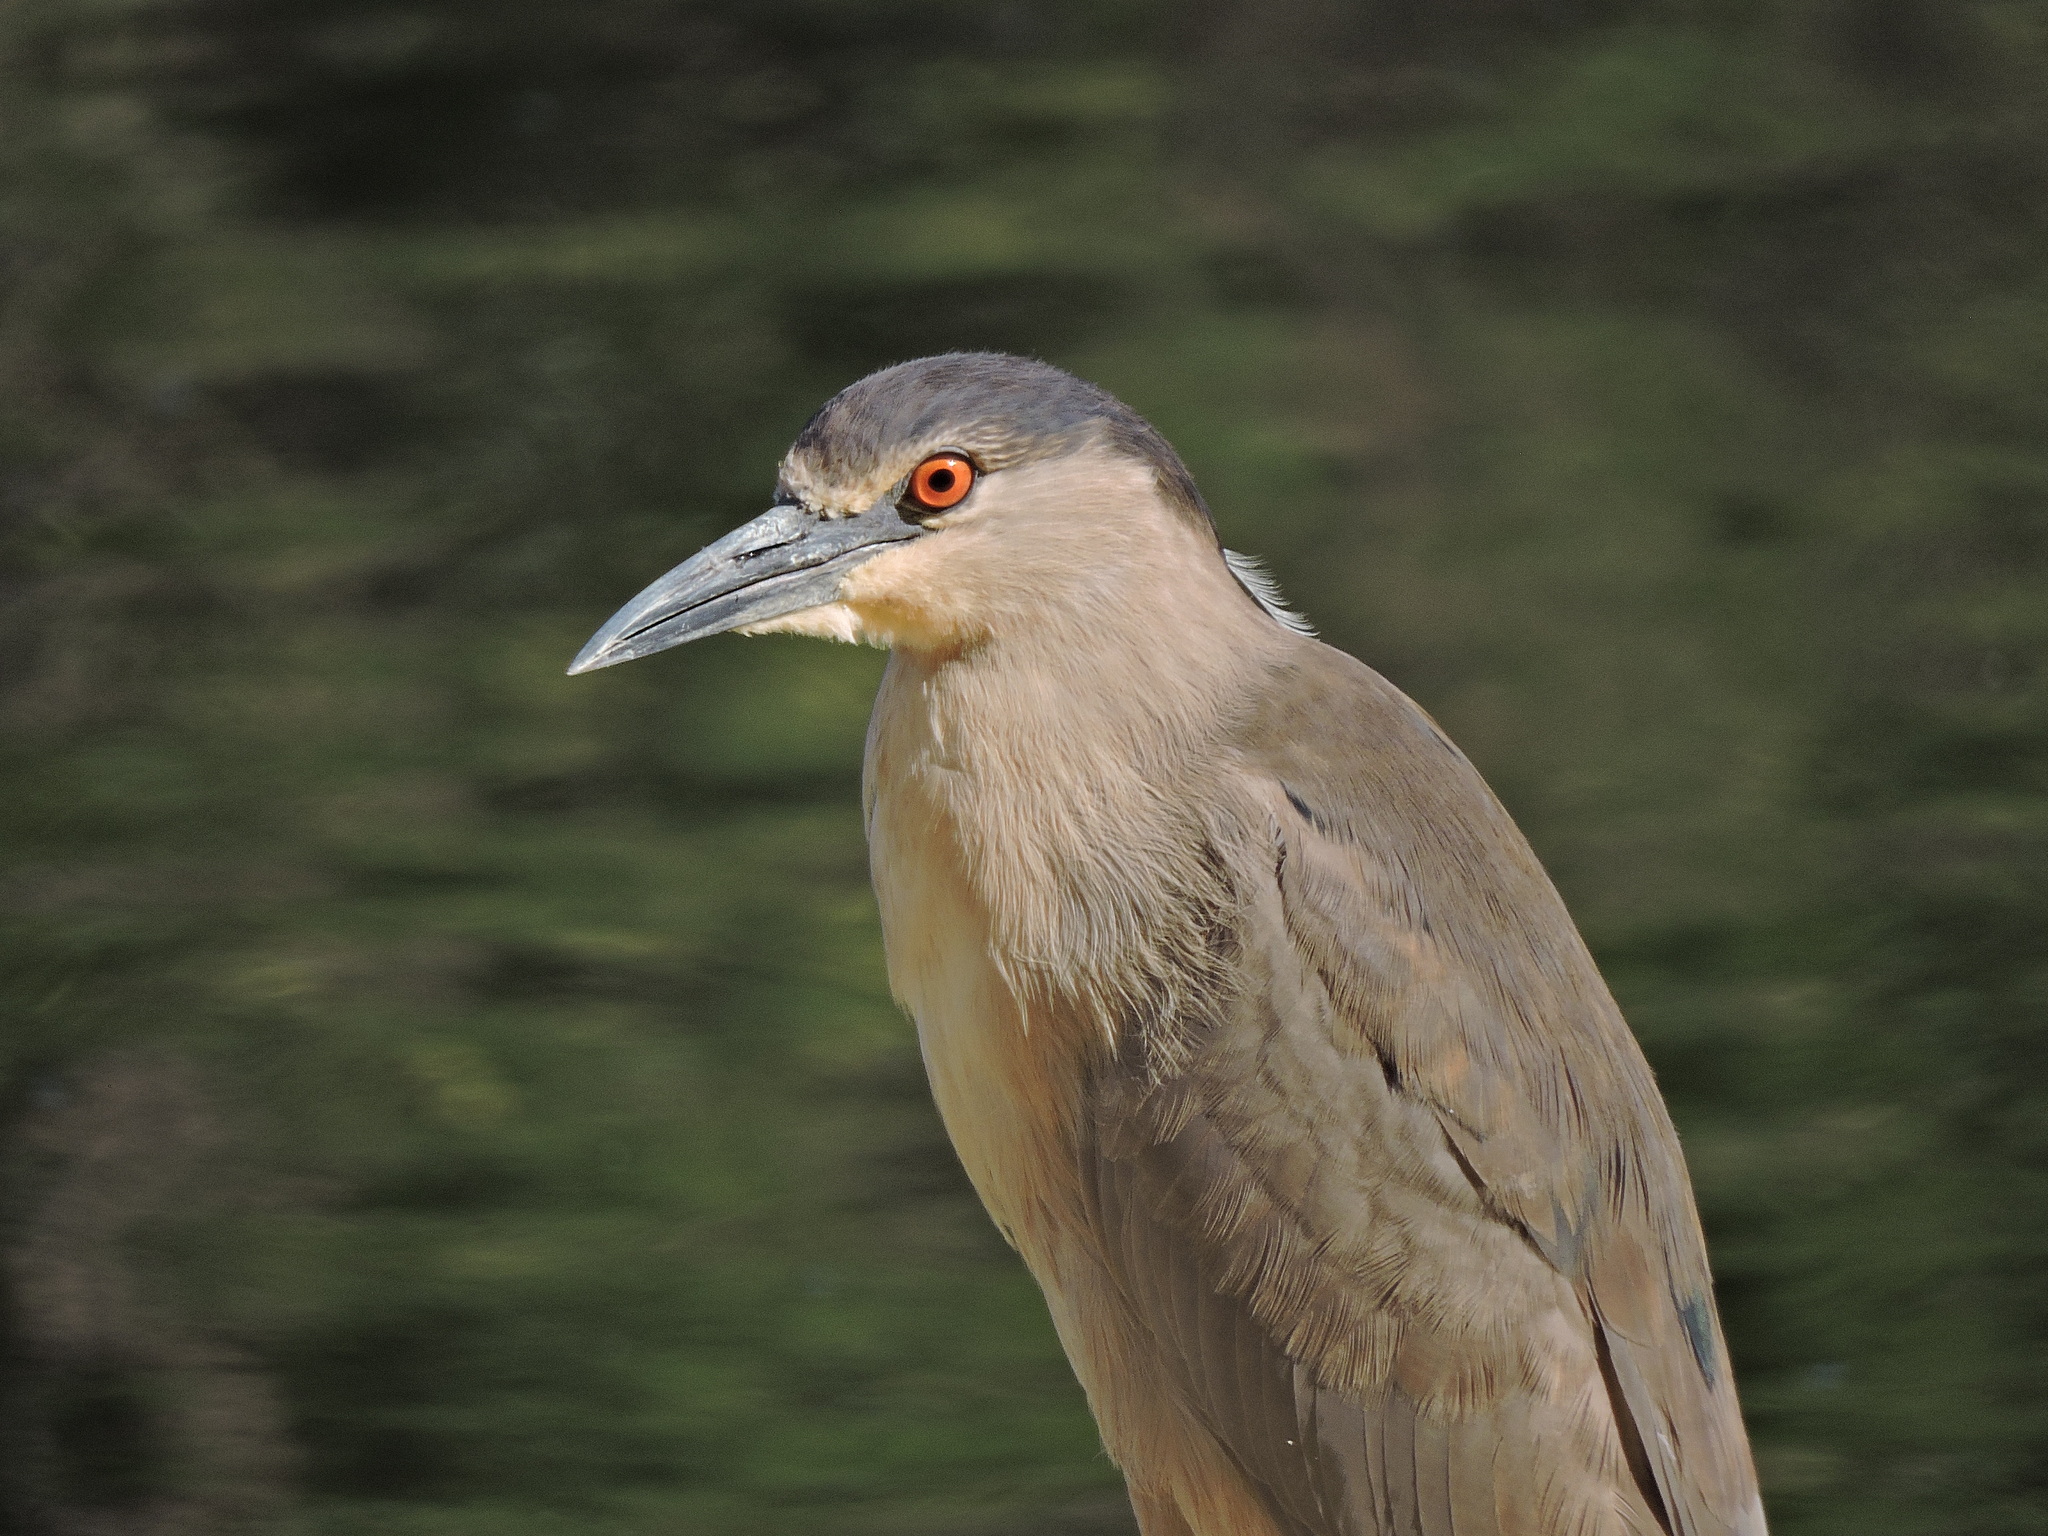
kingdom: Animalia
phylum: Chordata
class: Aves
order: Pelecaniformes
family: Ardeidae
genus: Nycticorax
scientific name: Nycticorax nycticorax
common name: Black-crowned night heron
